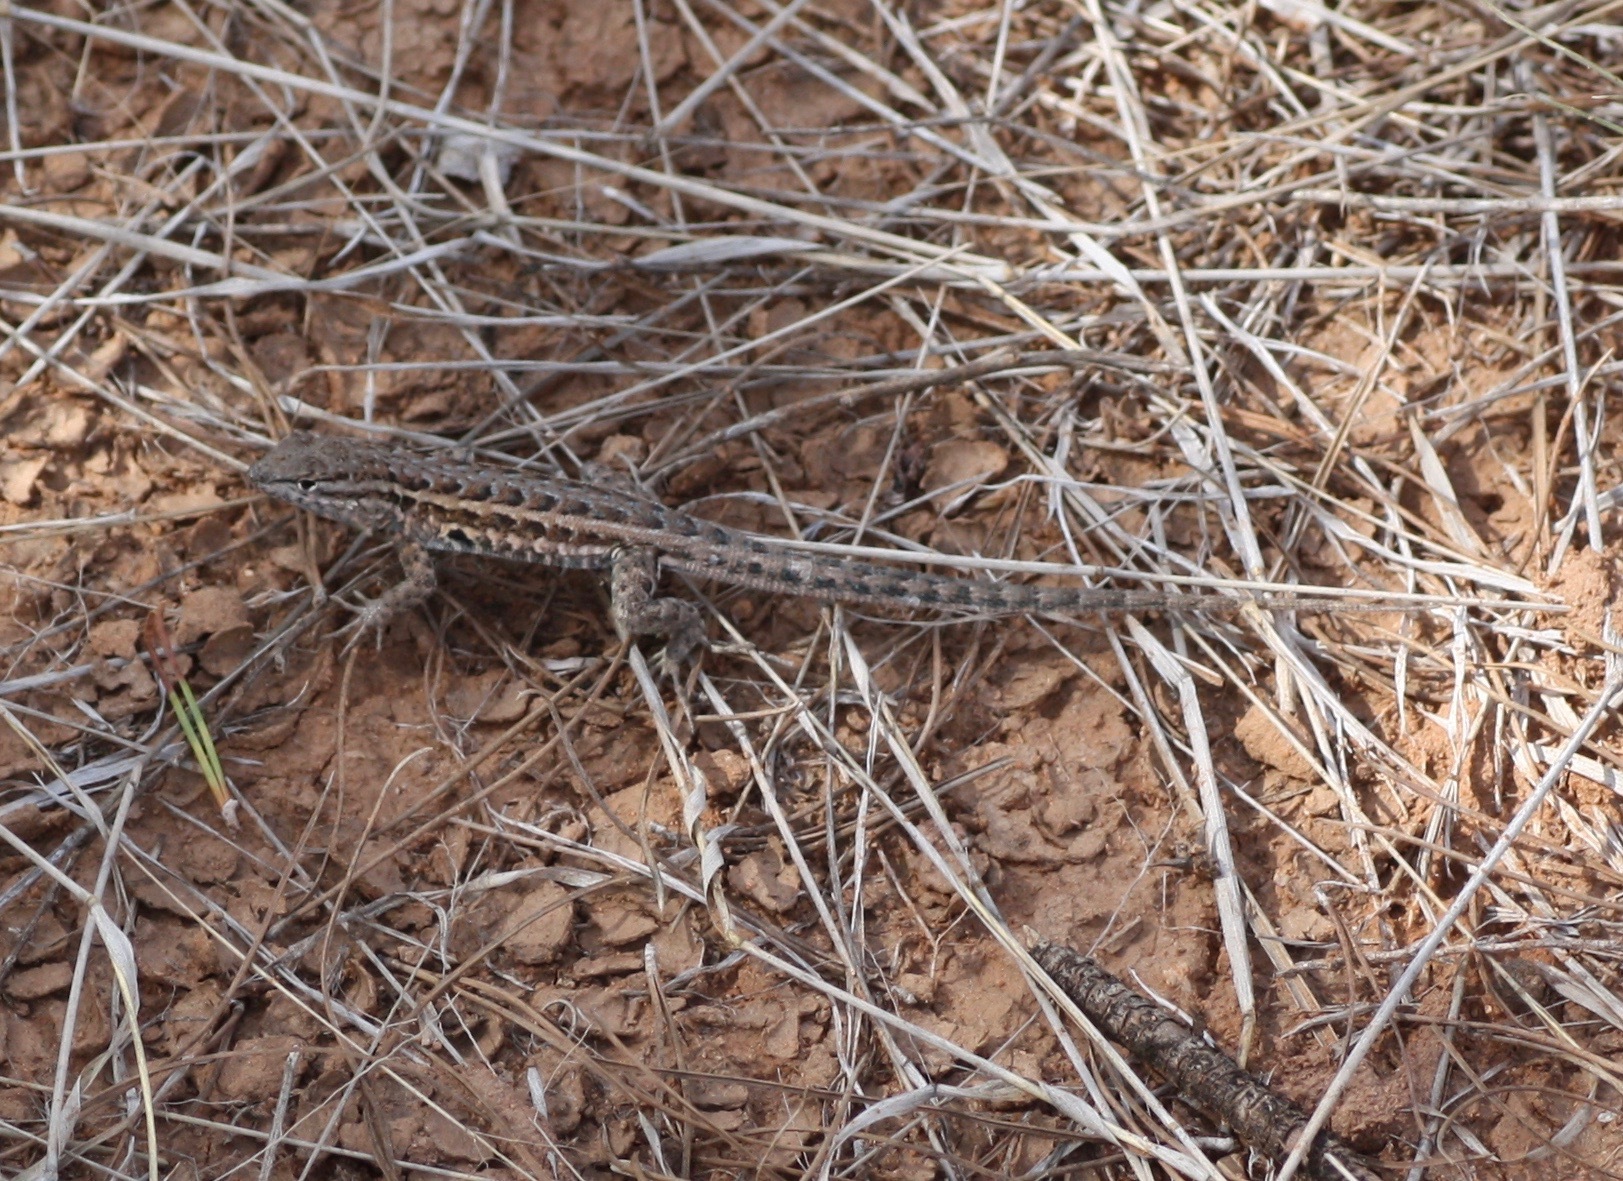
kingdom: Animalia
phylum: Chordata
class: Squamata
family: Phrynosomatidae
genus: Uta
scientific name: Uta stansburiana
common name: Side-blotched lizard
